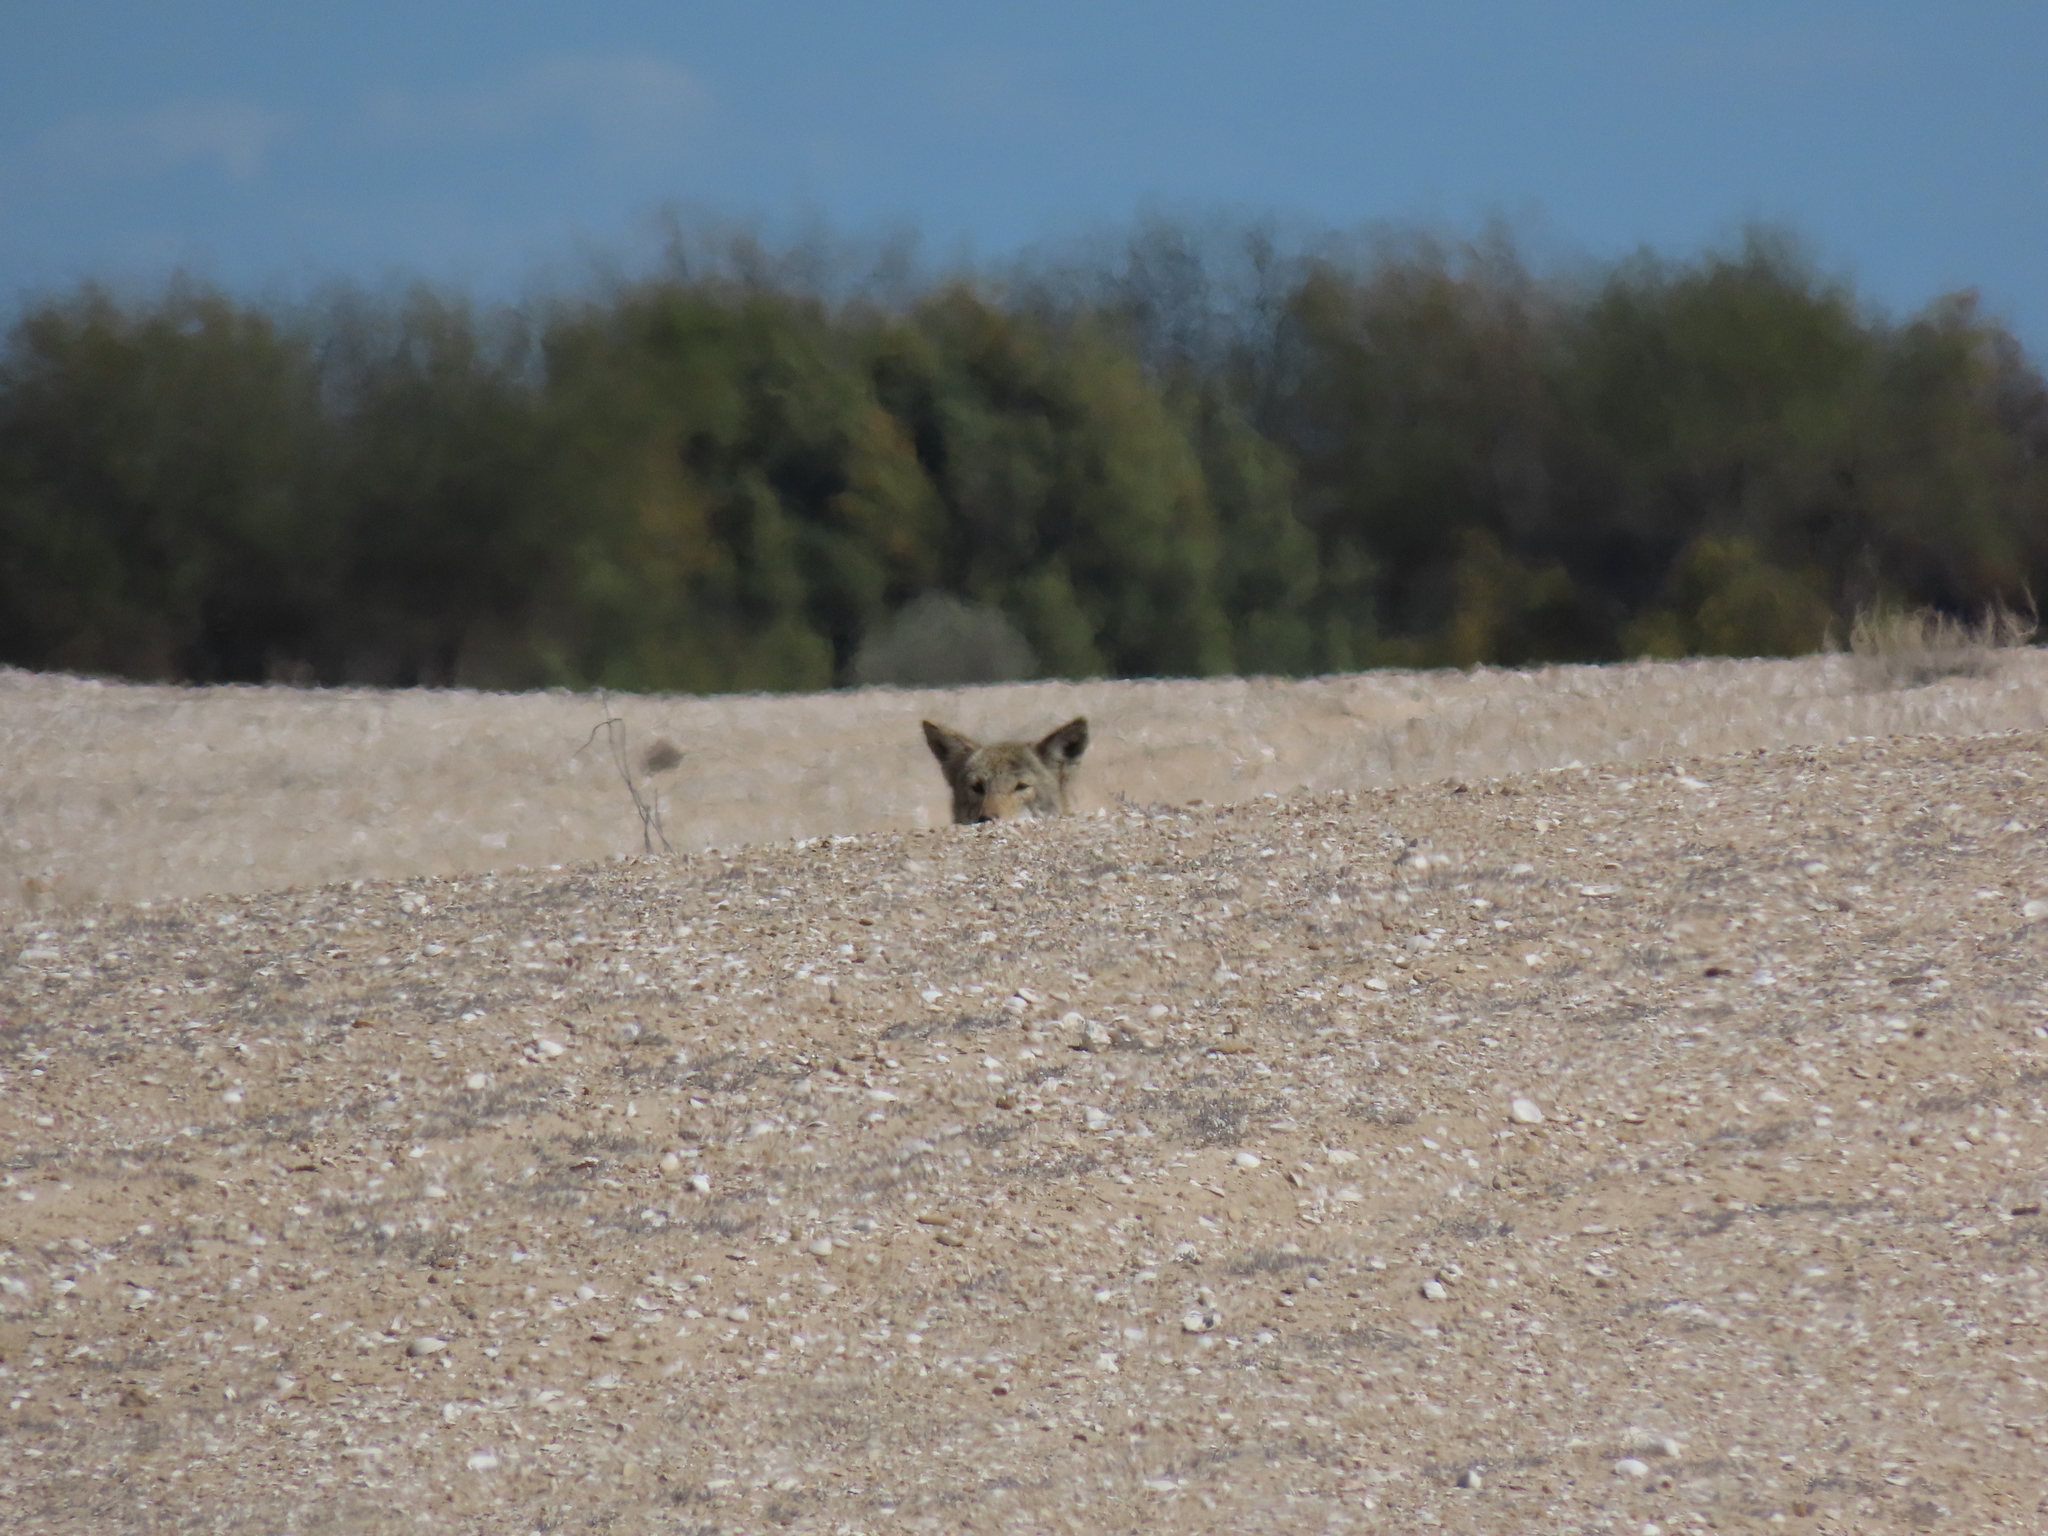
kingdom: Animalia
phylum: Chordata
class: Mammalia
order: Carnivora
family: Canidae
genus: Canis
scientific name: Canis latrans
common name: Coyote
